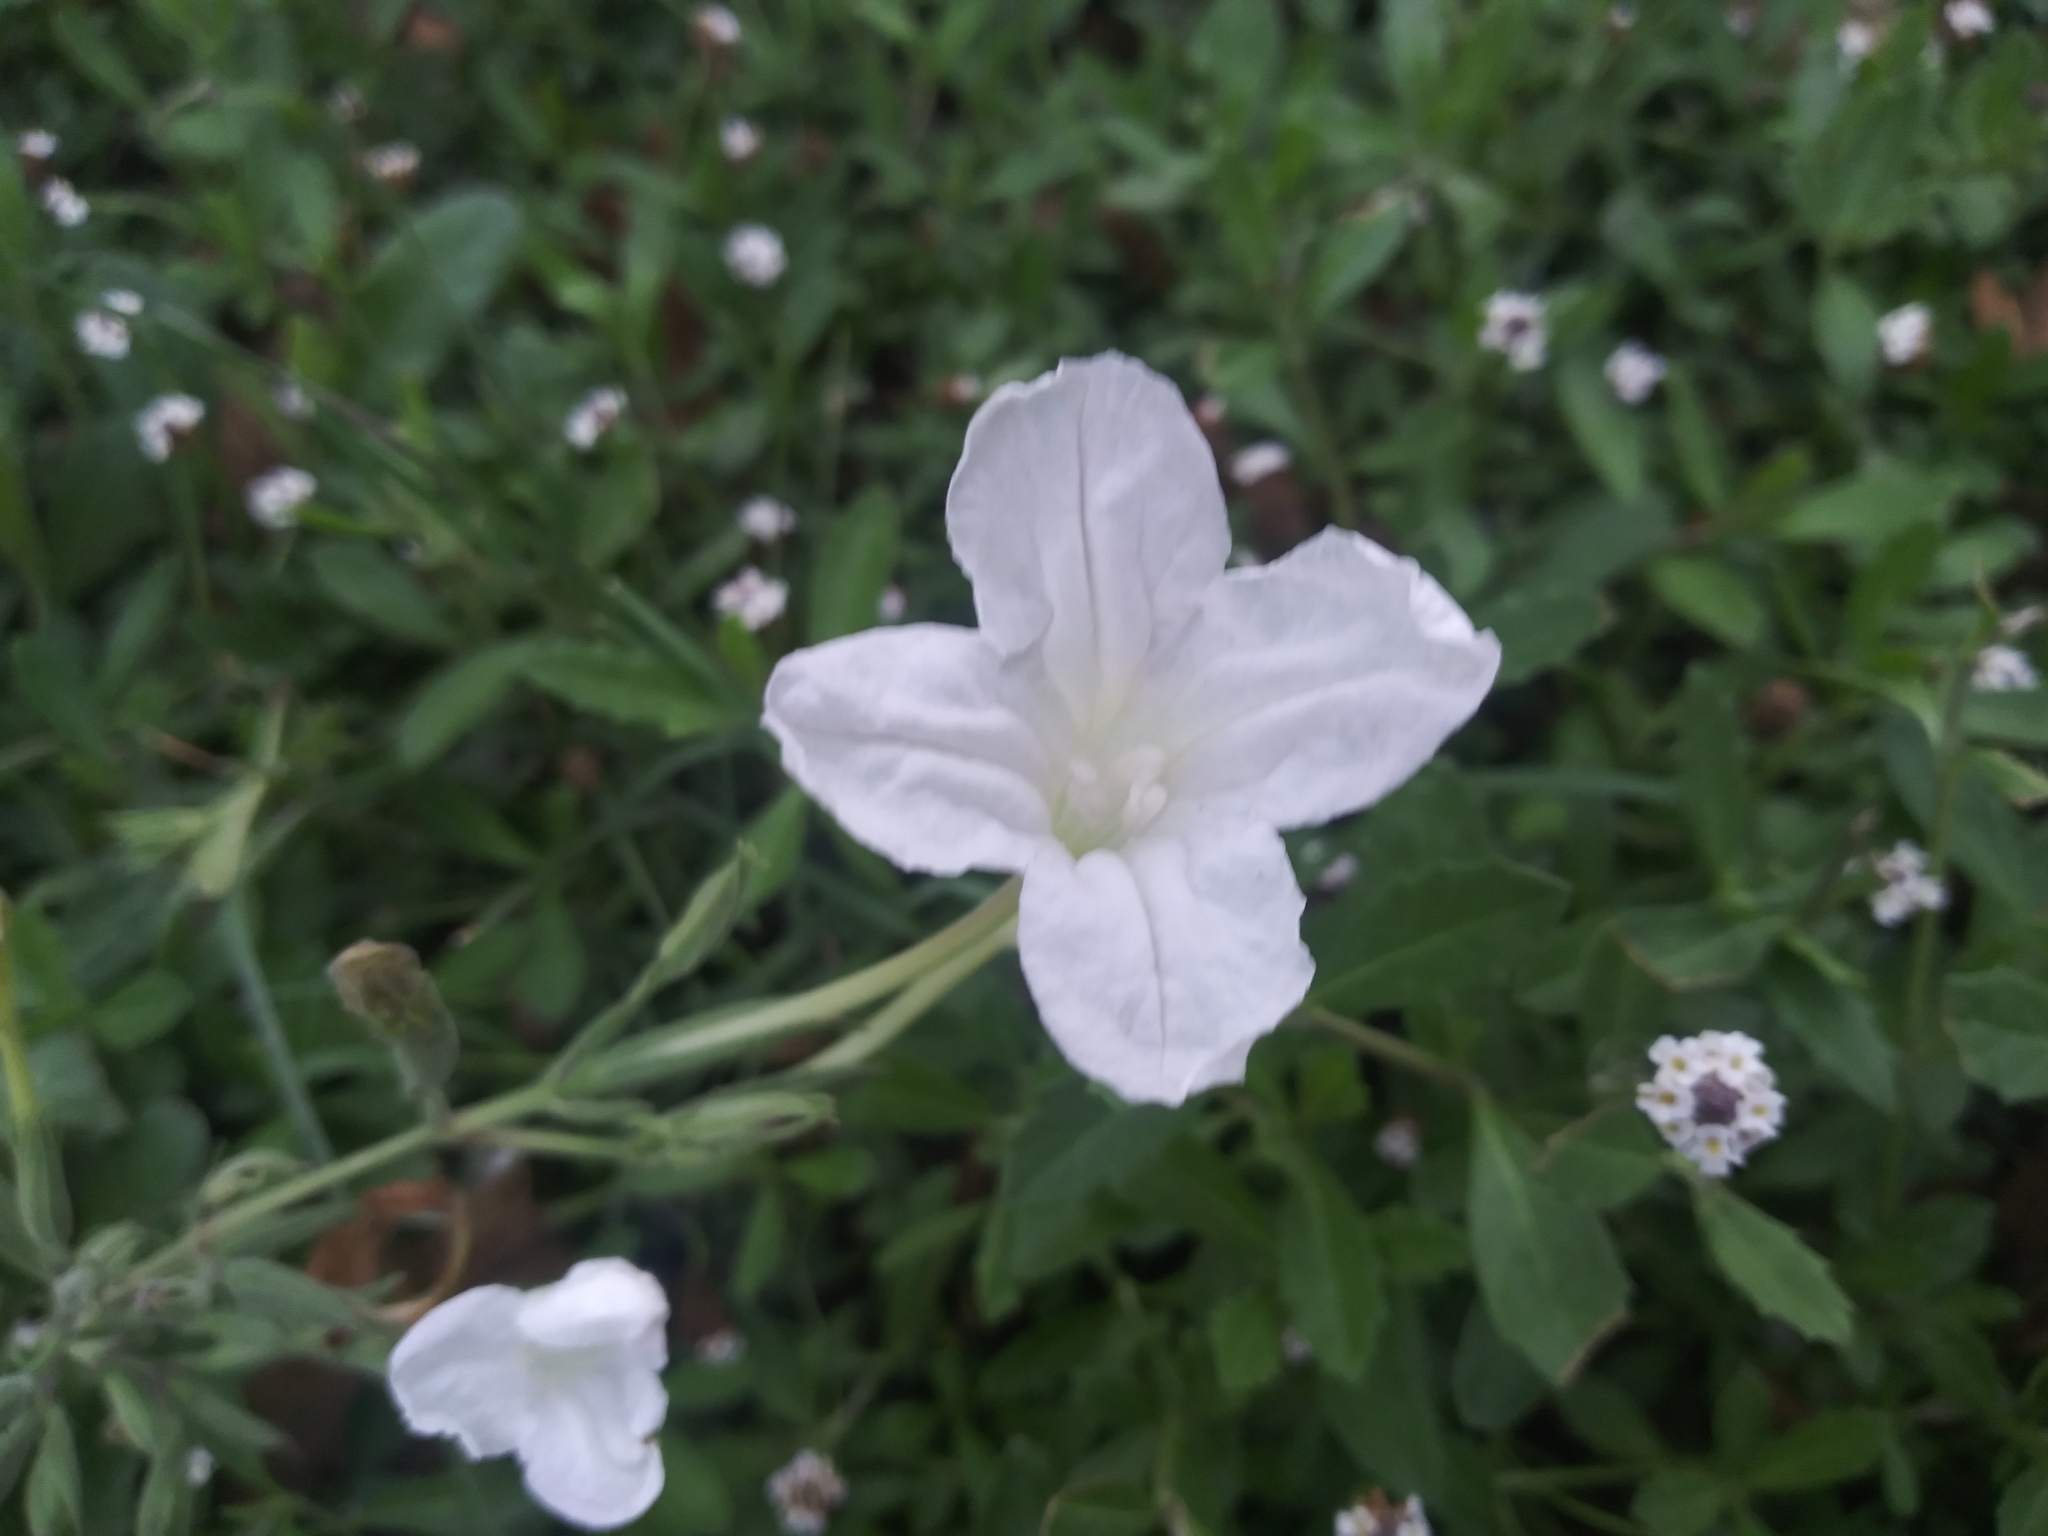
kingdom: Plantae
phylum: Tracheophyta
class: Magnoliopsida
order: Lamiales
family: Acanthaceae
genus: Ruellia
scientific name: Ruellia metziae
